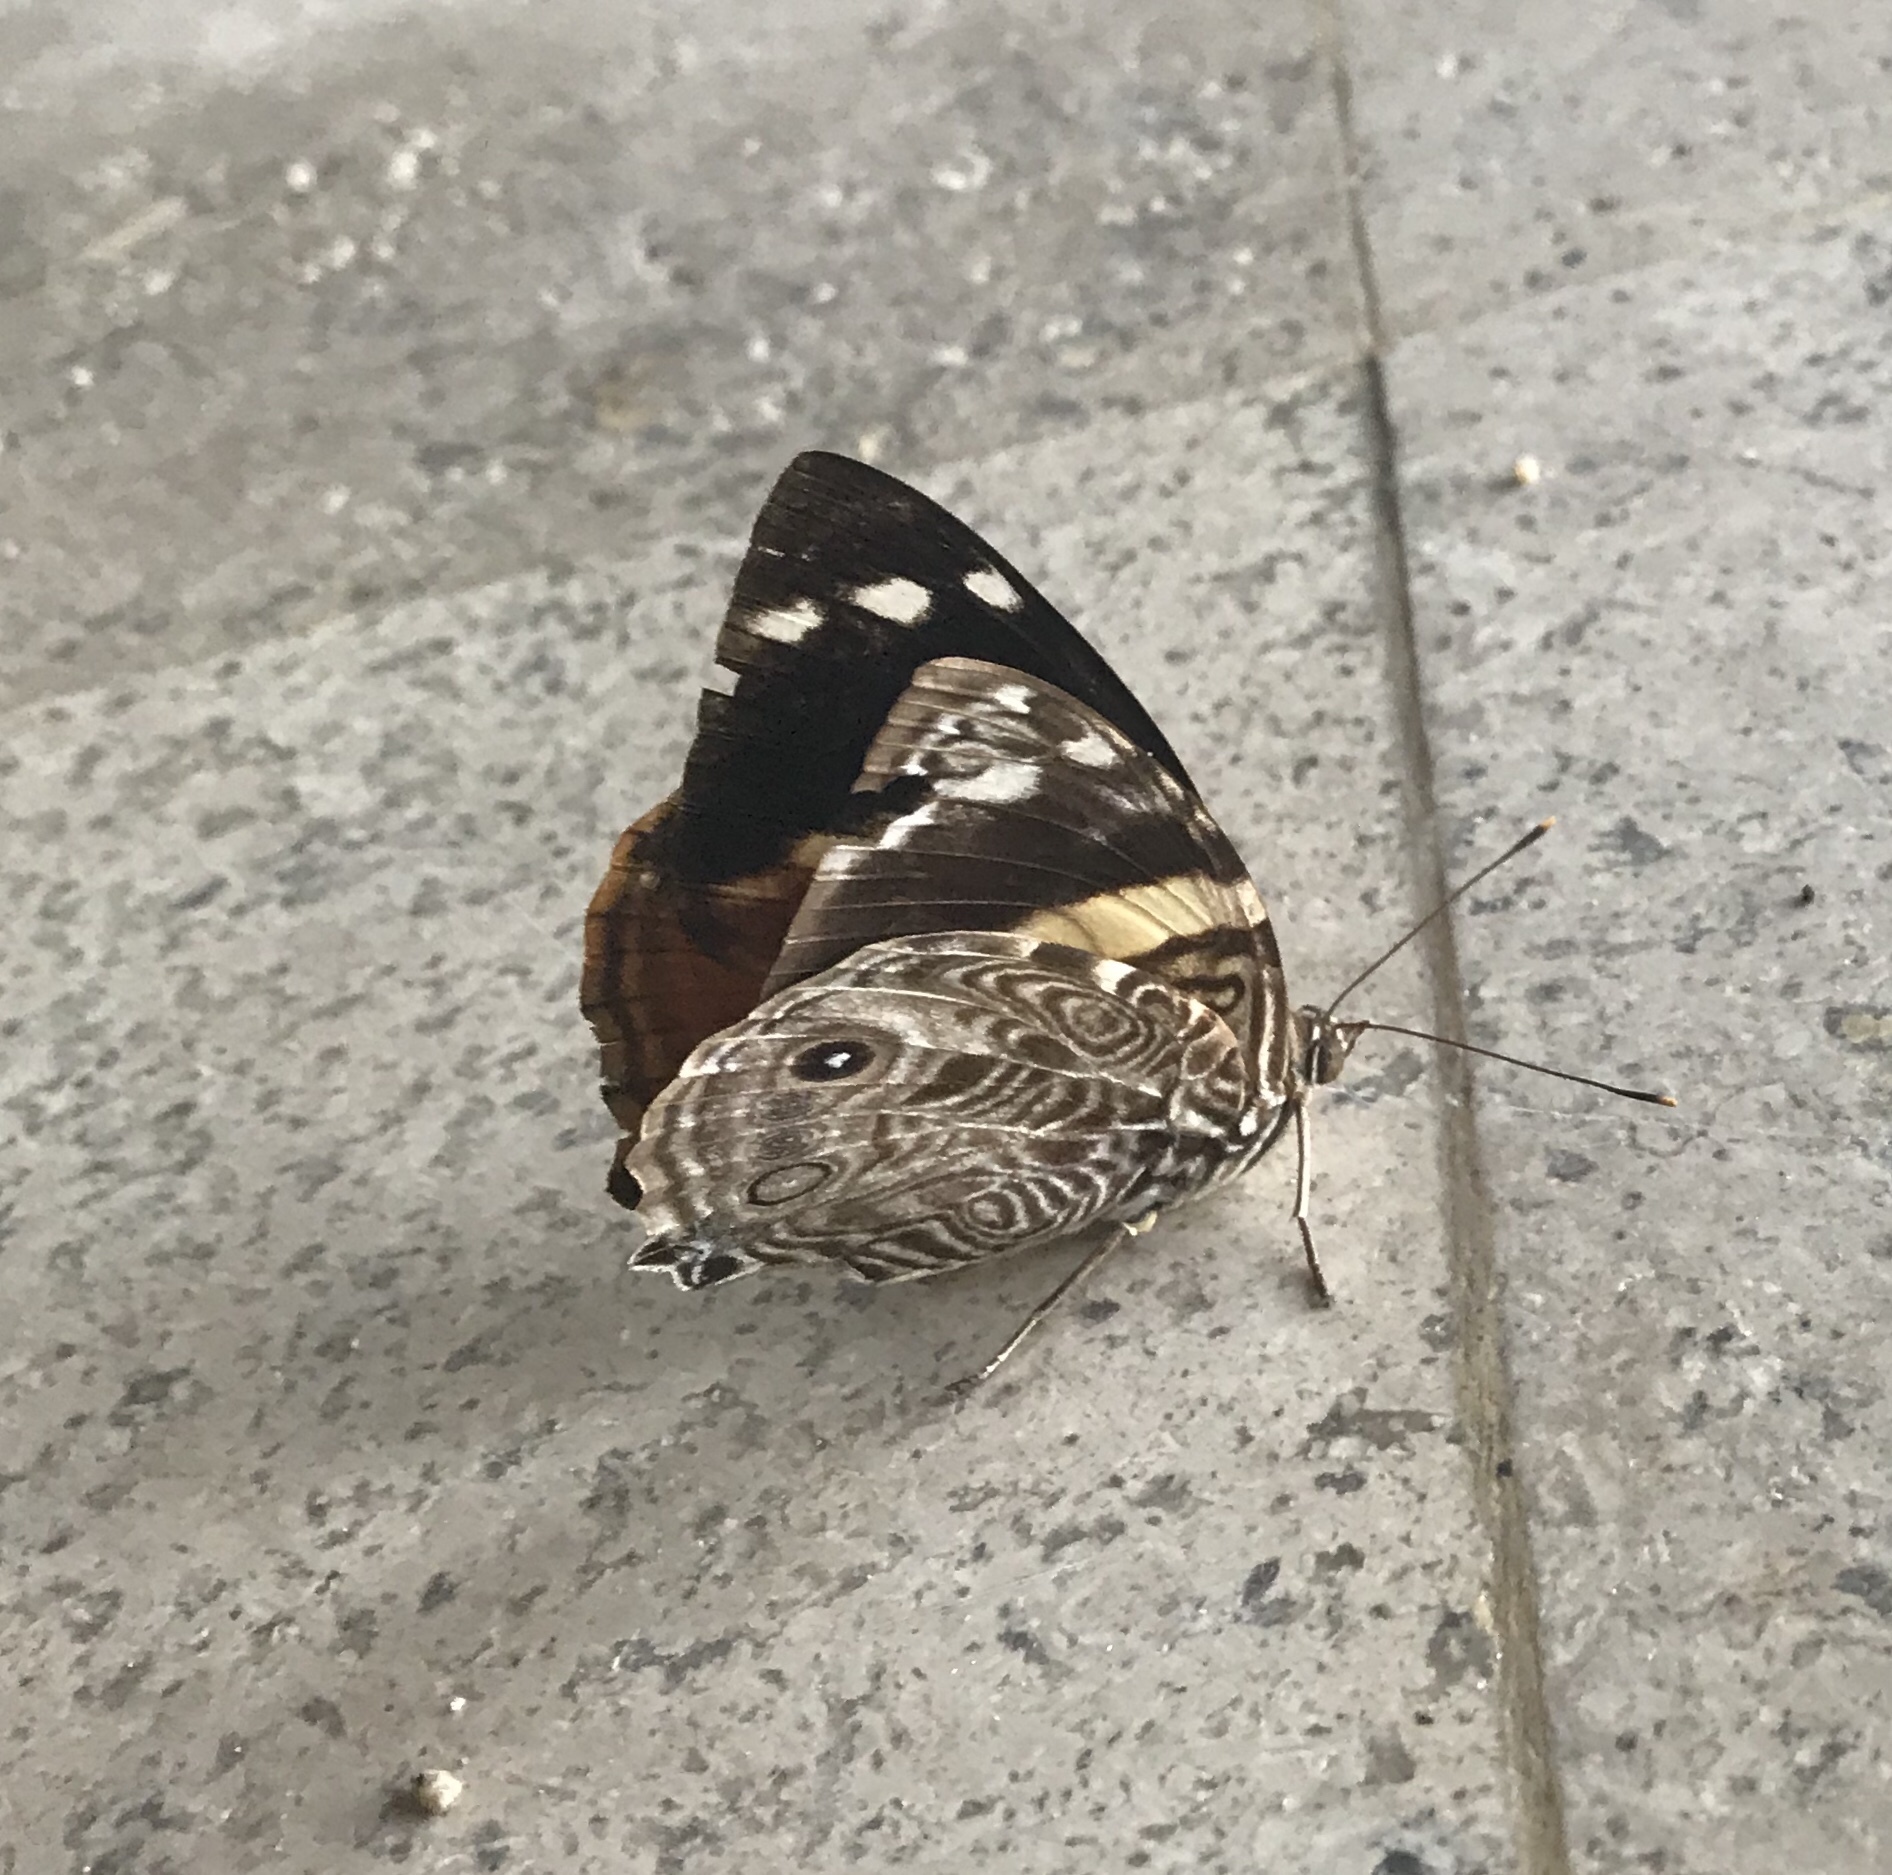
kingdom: Animalia
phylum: Arthropoda
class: Insecta
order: Lepidoptera
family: Nymphalidae
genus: Smyrna
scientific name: Smyrna blomfildia
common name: Blomfild's beauty
